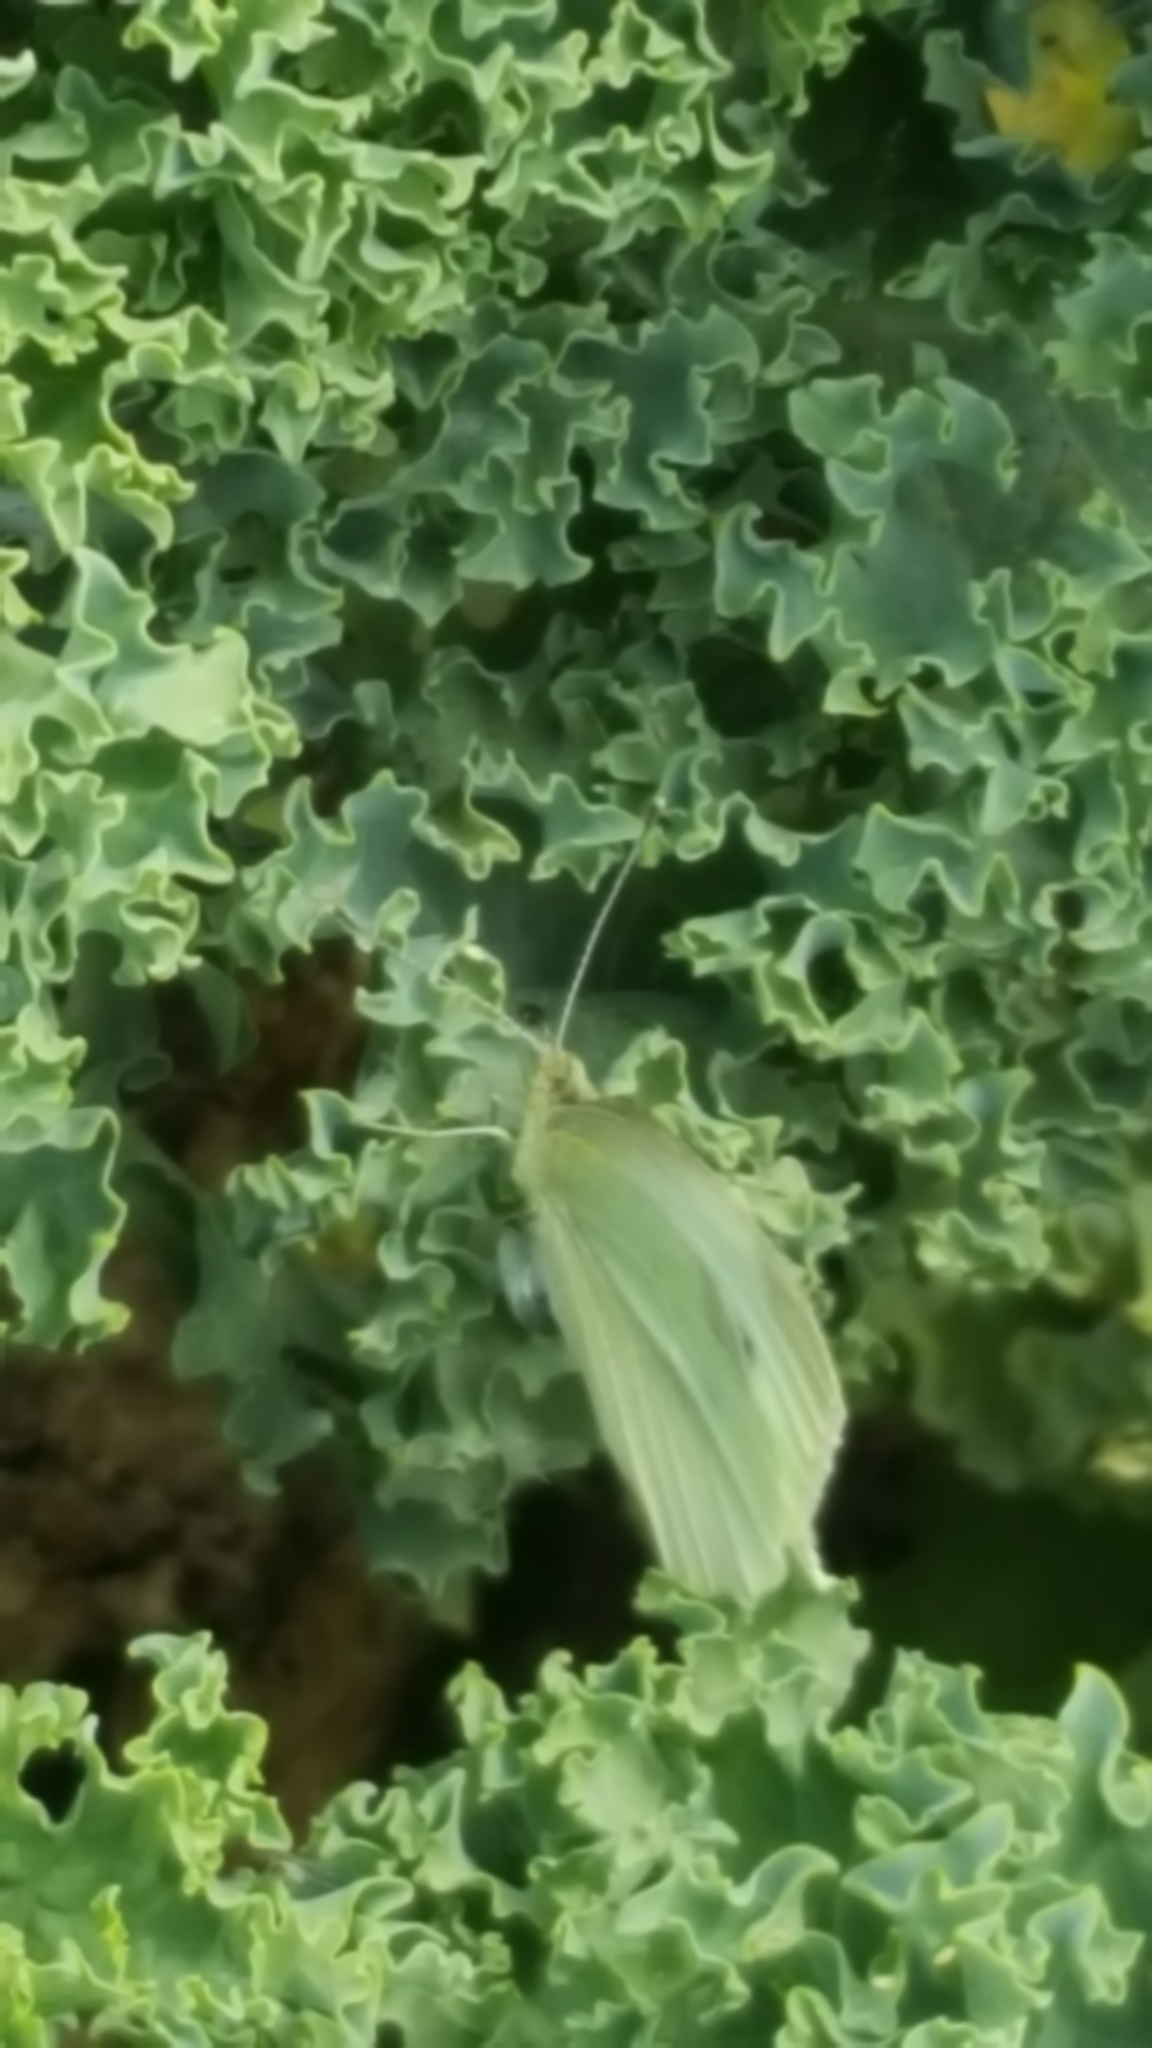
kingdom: Animalia
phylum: Arthropoda
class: Insecta
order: Lepidoptera
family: Pieridae
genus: Pieris
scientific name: Pieris rapae
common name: Small white
